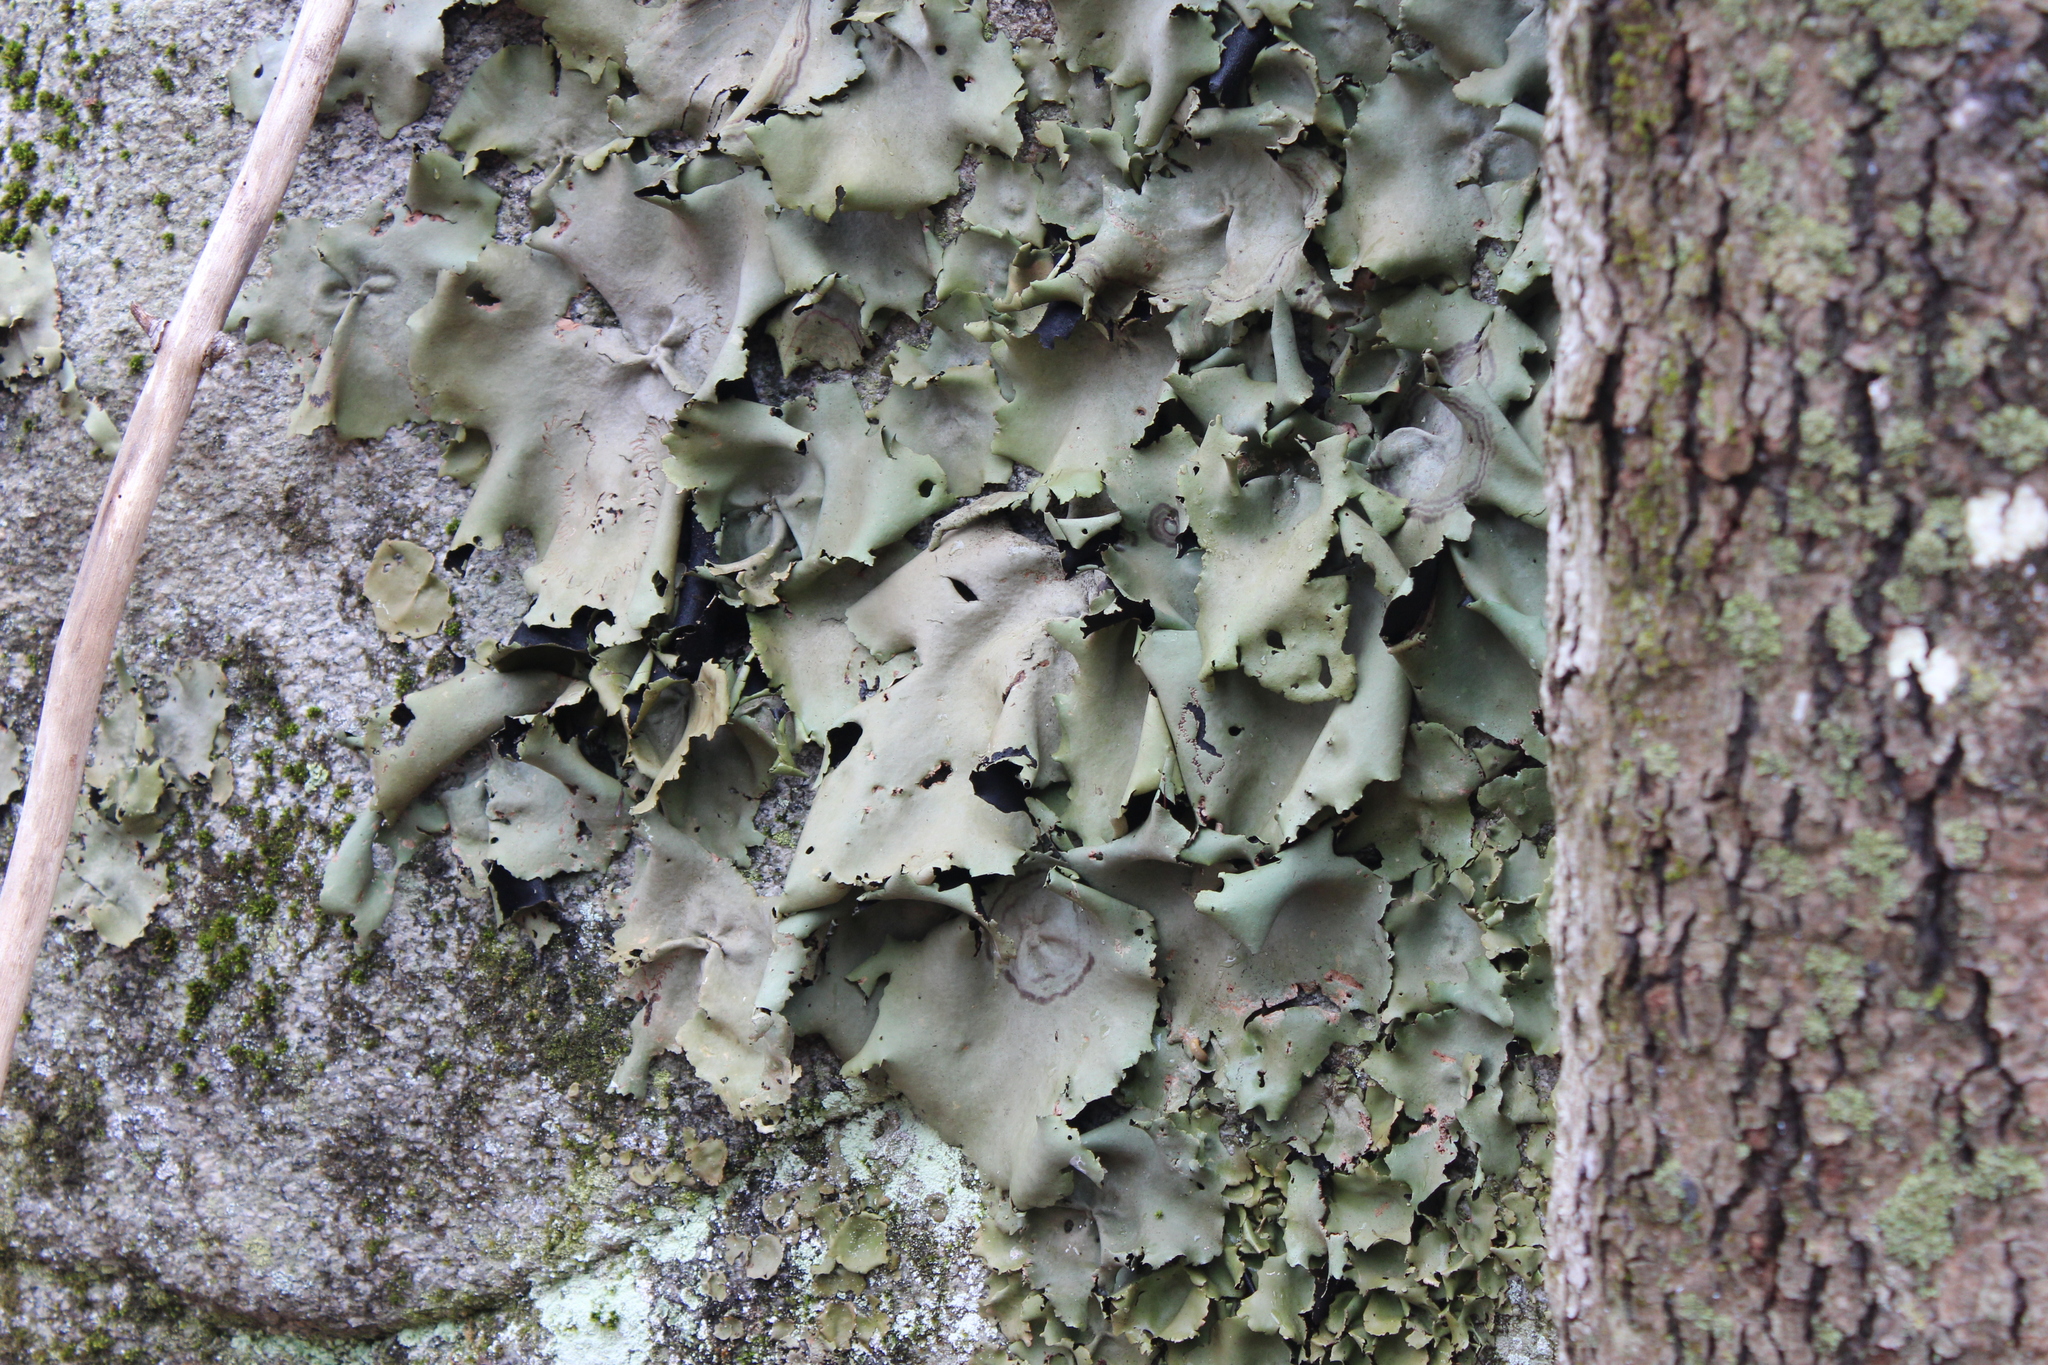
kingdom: Fungi
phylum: Ascomycota
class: Lecanoromycetes
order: Umbilicariales
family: Umbilicariaceae
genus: Umbilicaria
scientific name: Umbilicaria mammulata
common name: Smooth rock tripe
